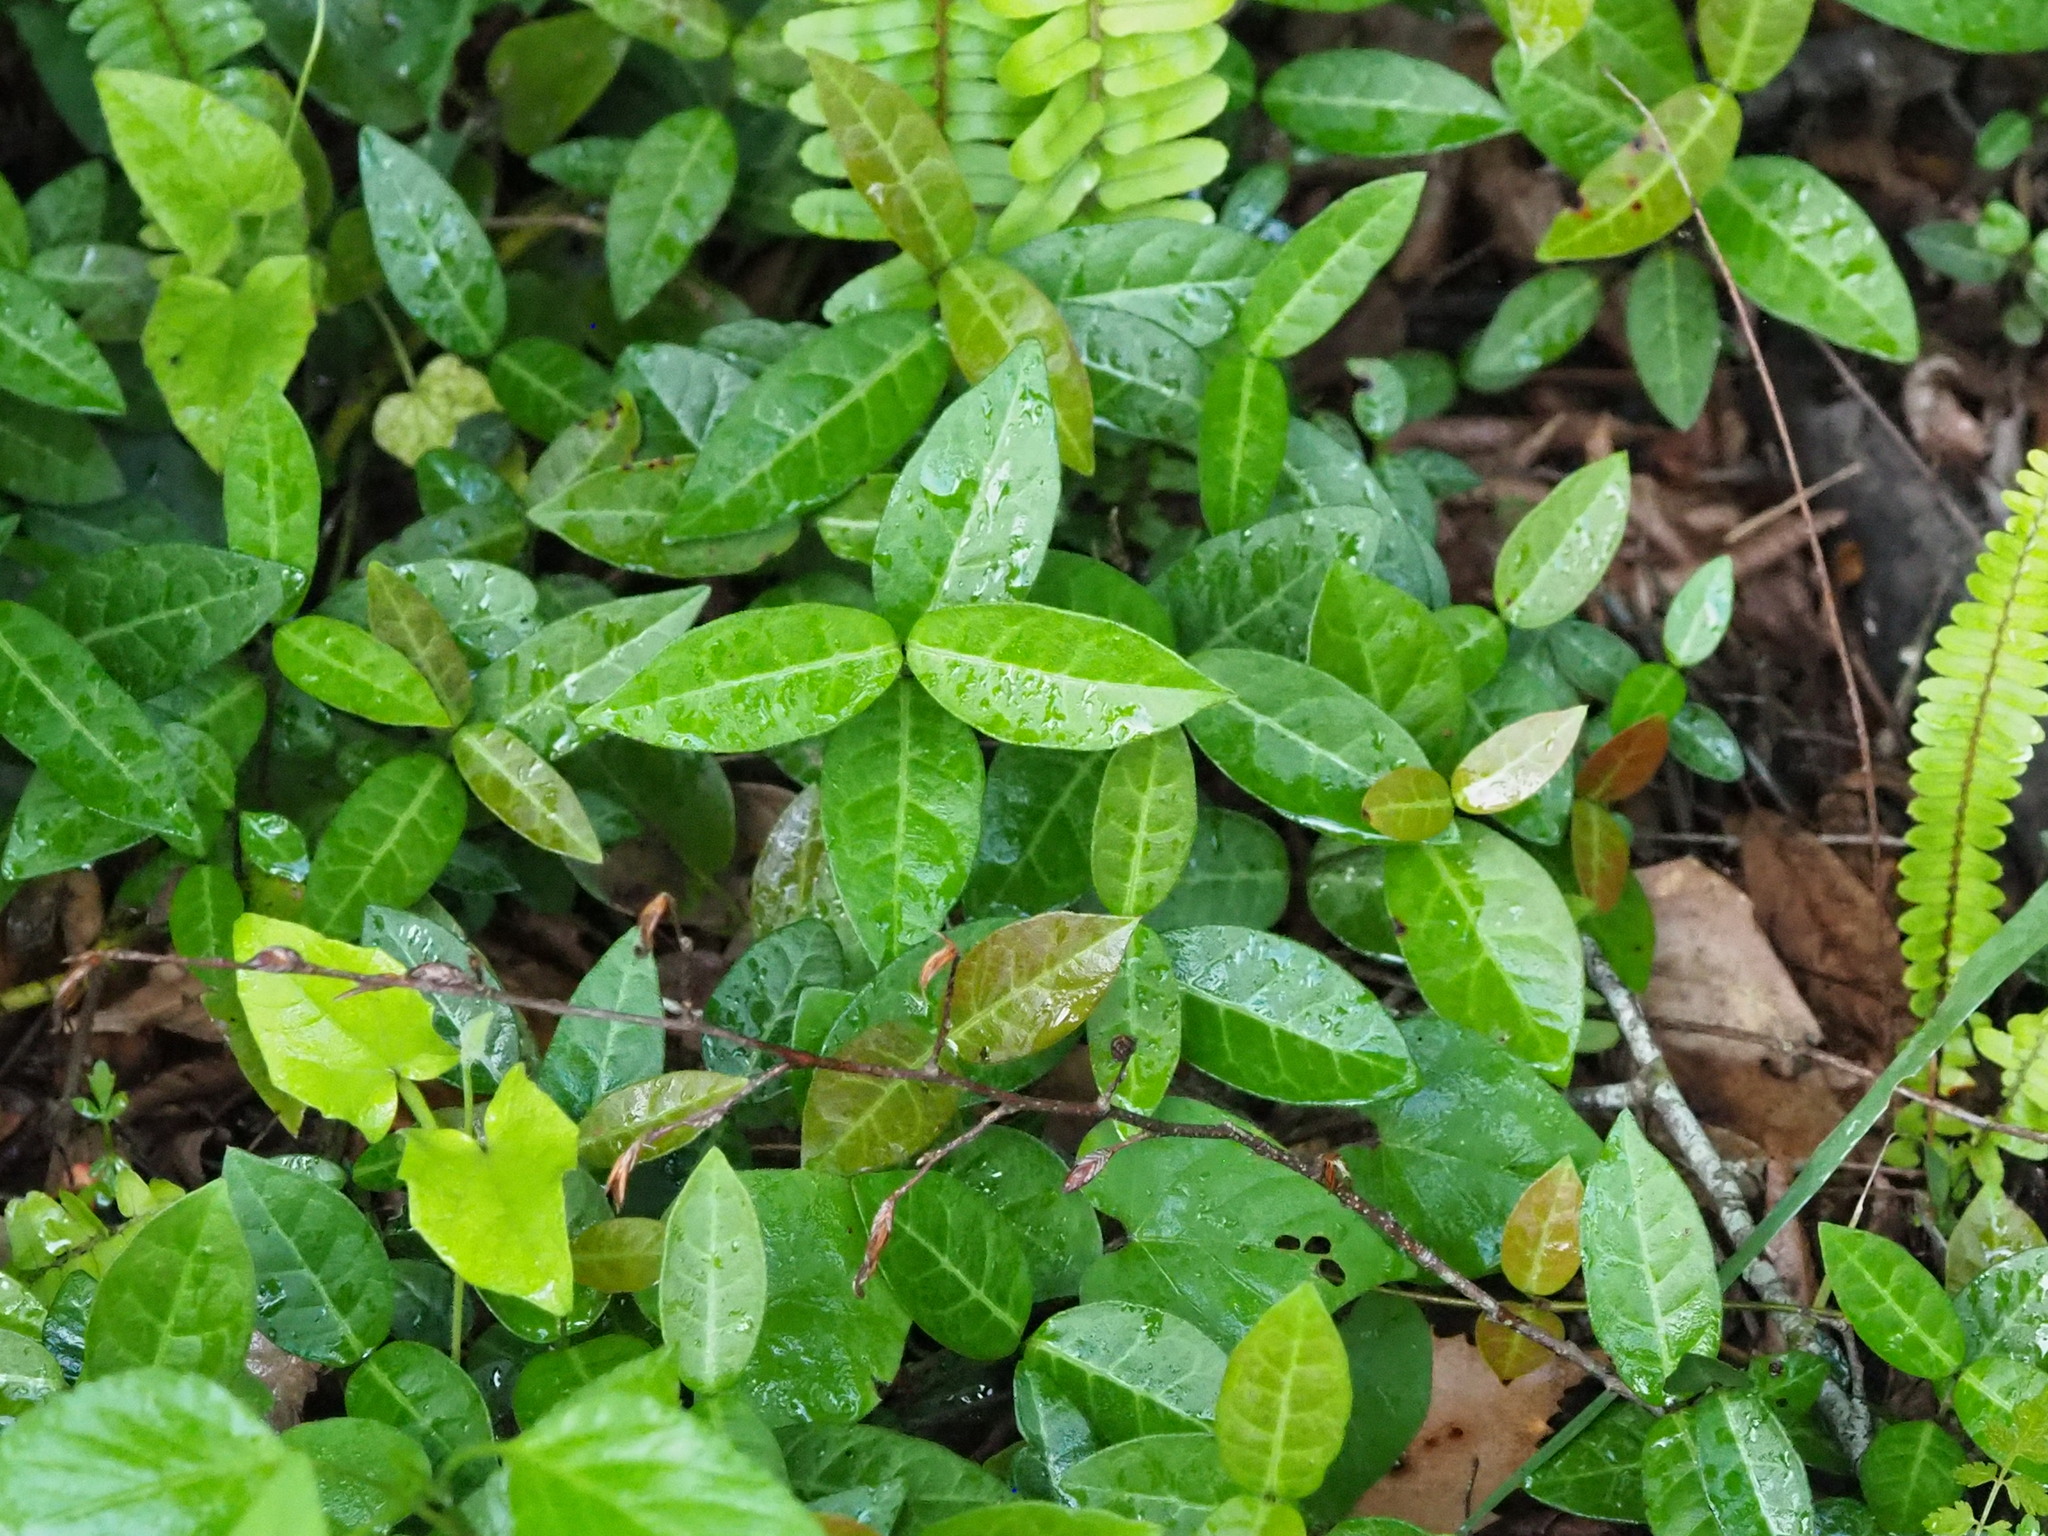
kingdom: Plantae
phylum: Tracheophyta
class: Magnoliopsida
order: Gentianales
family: Apocynaceae
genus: Trachelospermum
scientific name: Trachelospermum jasminoides
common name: Confederate jasmine
